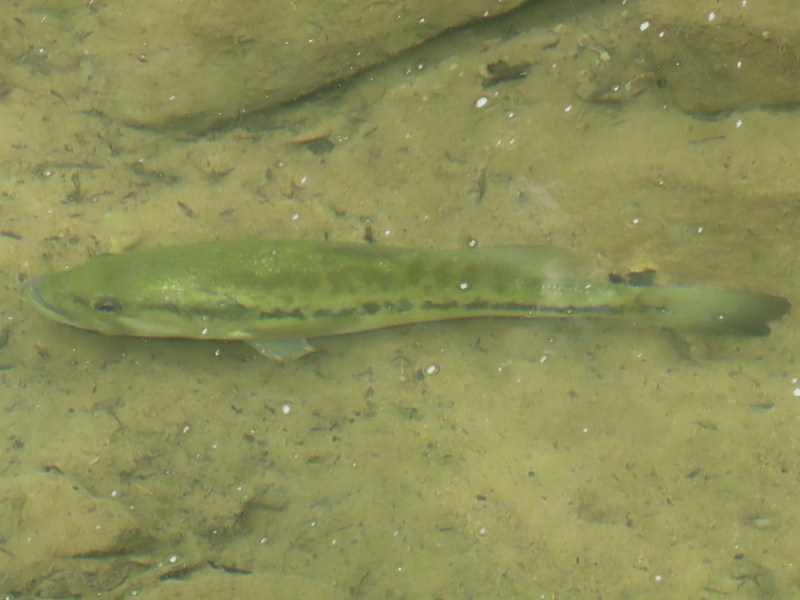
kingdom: Animalia
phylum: Chordata
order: Perciformes
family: Centrarchidae
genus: Micropterus
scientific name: Micropterus
